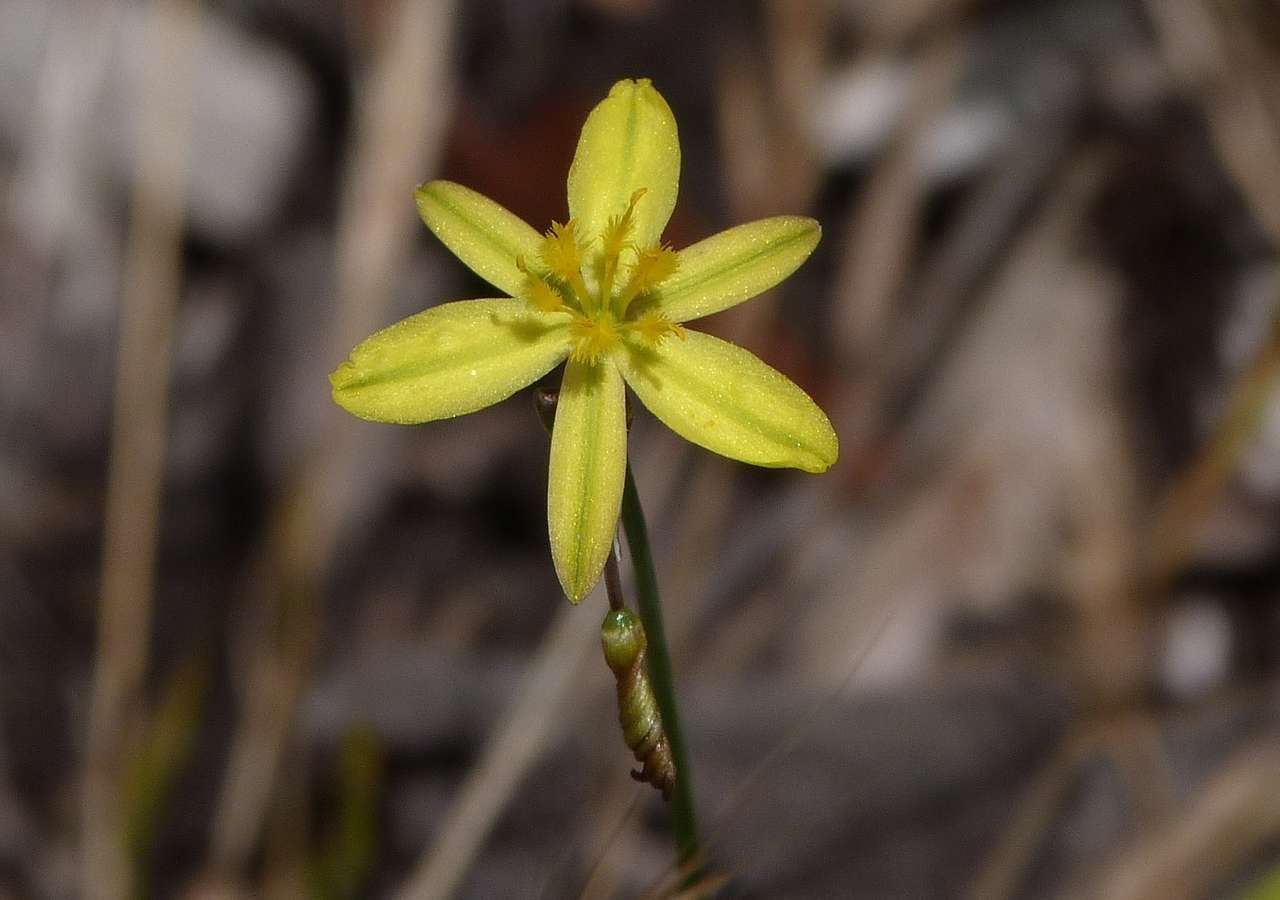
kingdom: Plantae
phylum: Tracheophyta
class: Liliopsida
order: Asparagales
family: Asphodelaceae
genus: Tricoryne
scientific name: Tricoryne elatior
